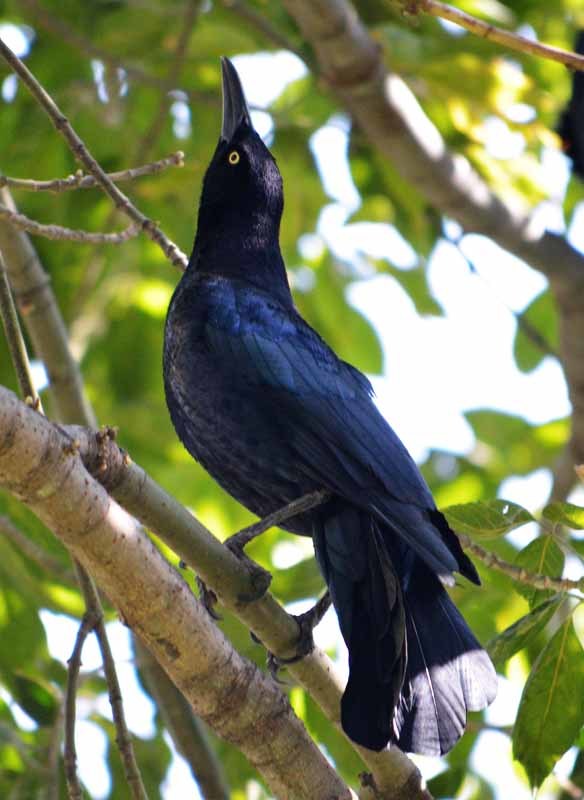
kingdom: Animalia
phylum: Chordata
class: Aves
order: Passeriformes
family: Icteridae
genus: Quiscalus
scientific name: Quiscalus mexicanus
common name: Great-tailed grackle
